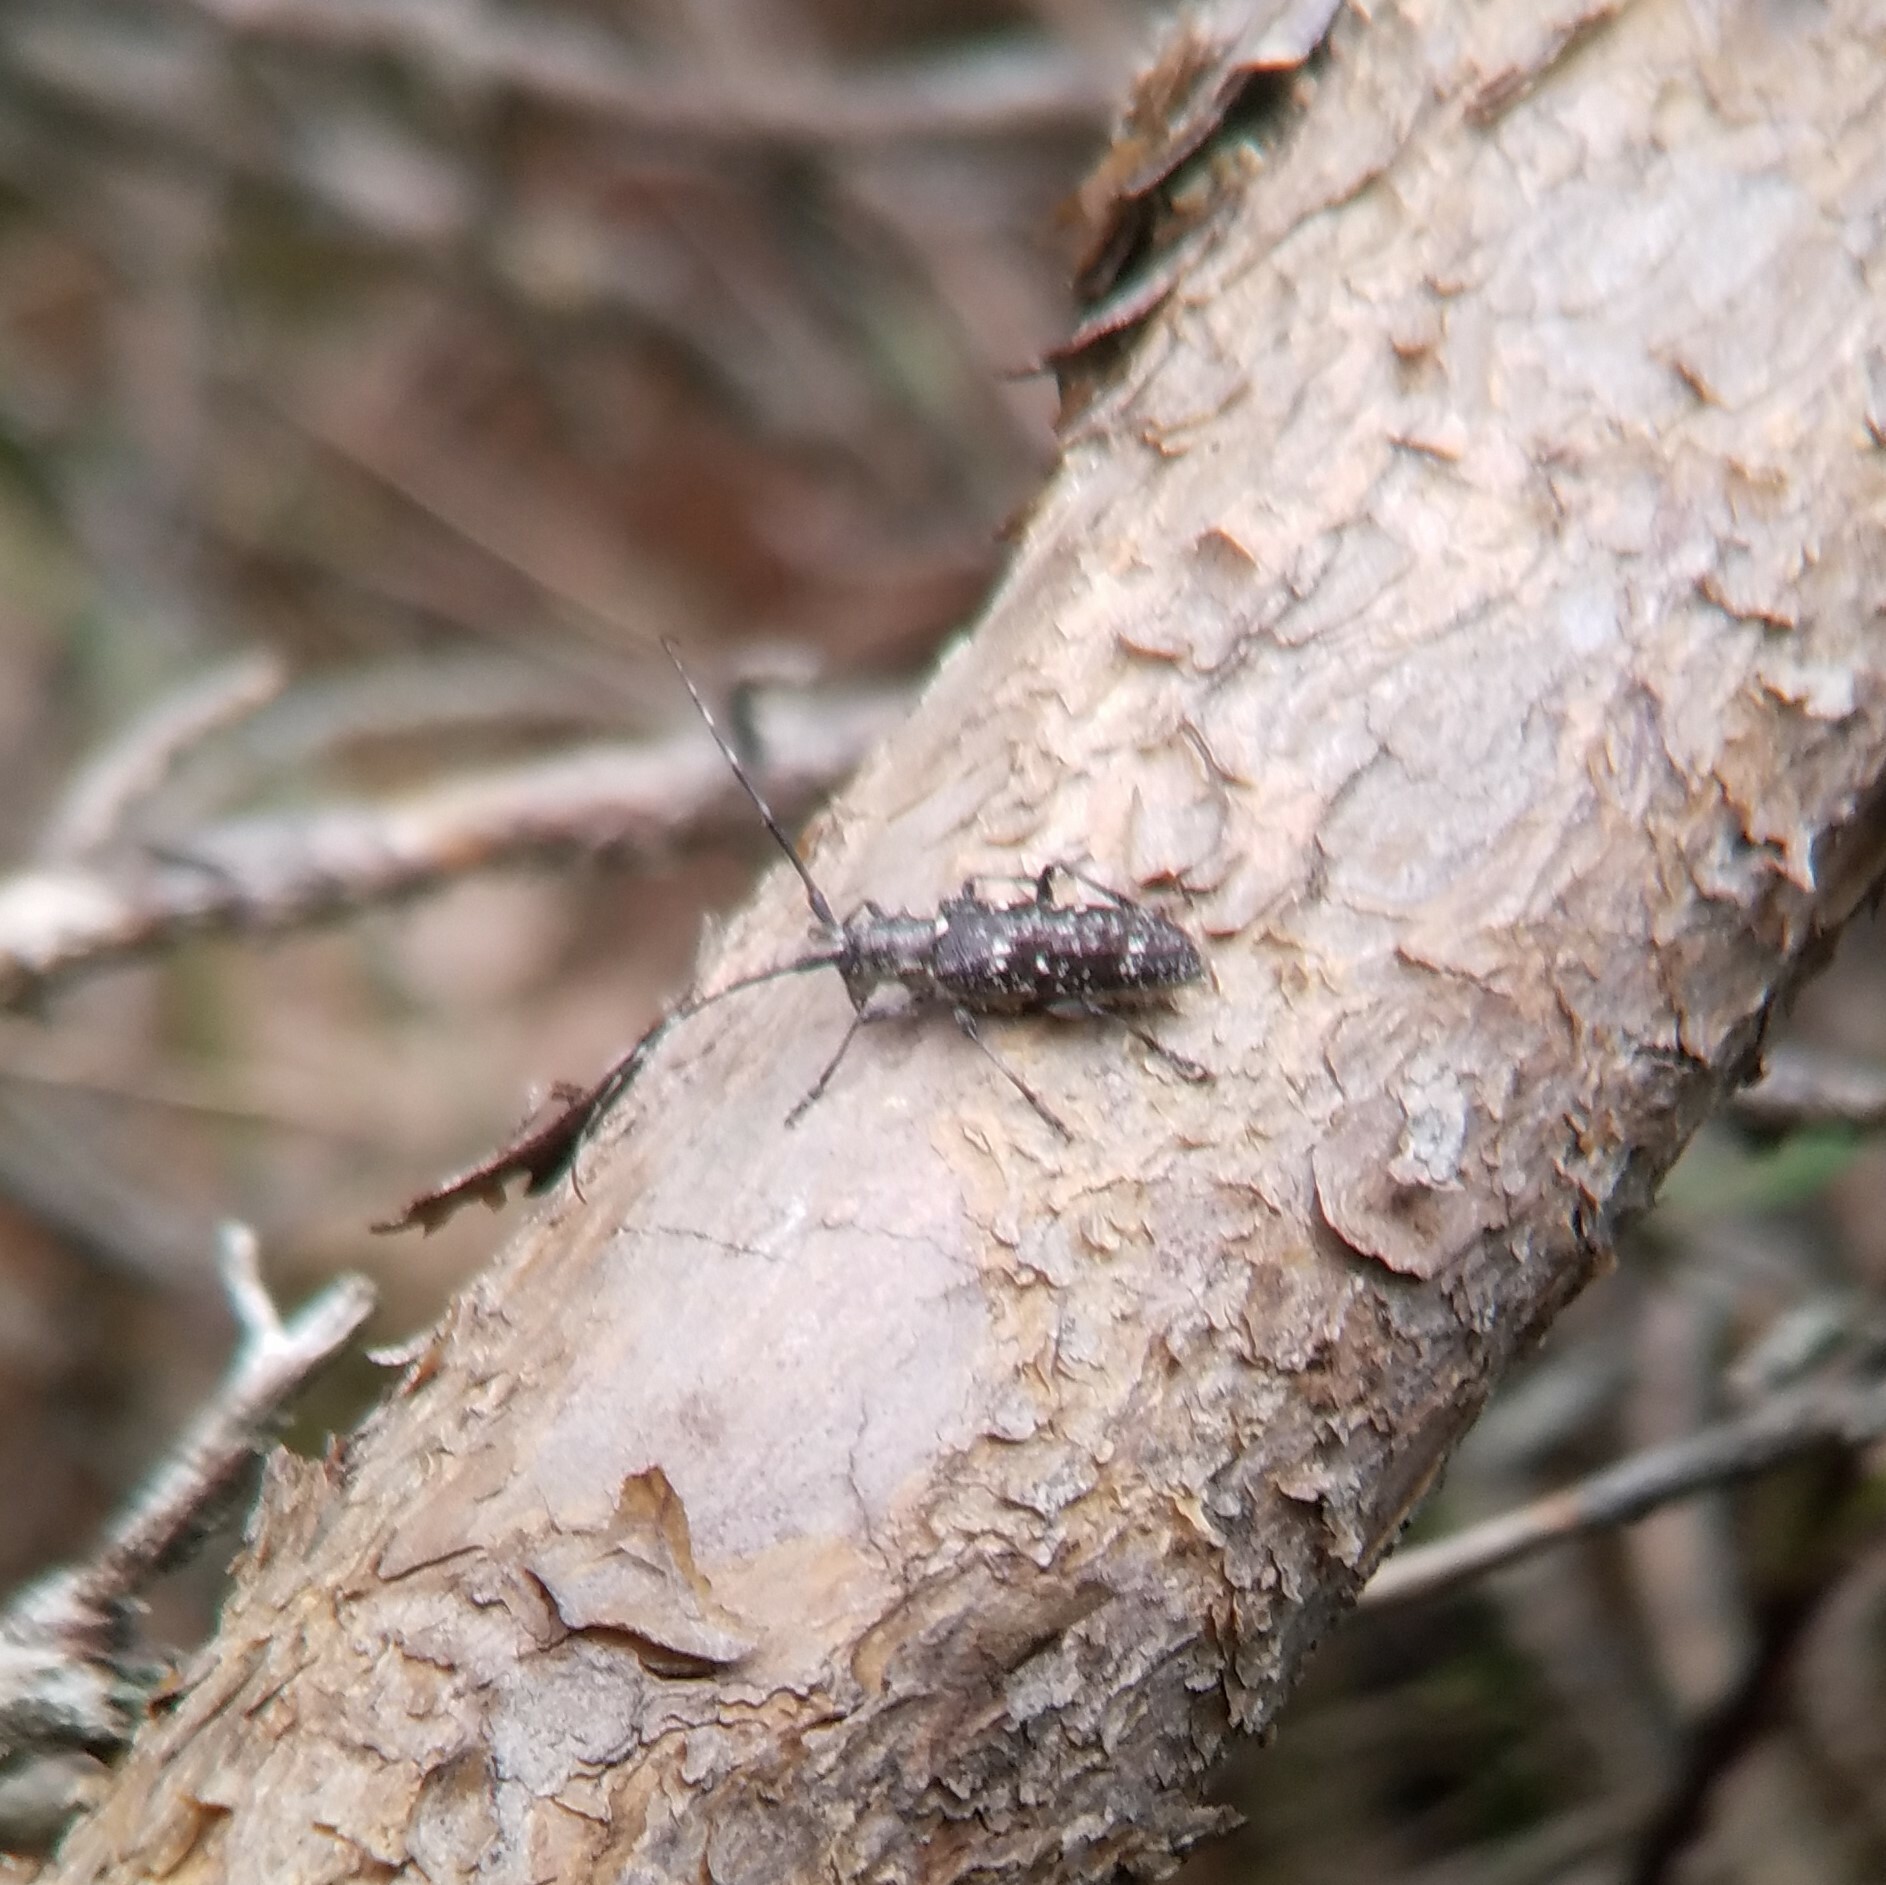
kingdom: Animalia
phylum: Arthropoda
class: Insecta
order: Coleoptera
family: Cerambycidae
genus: Monochamus
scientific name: Monochamus scutellatus
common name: White-spotted sawyer beetle
